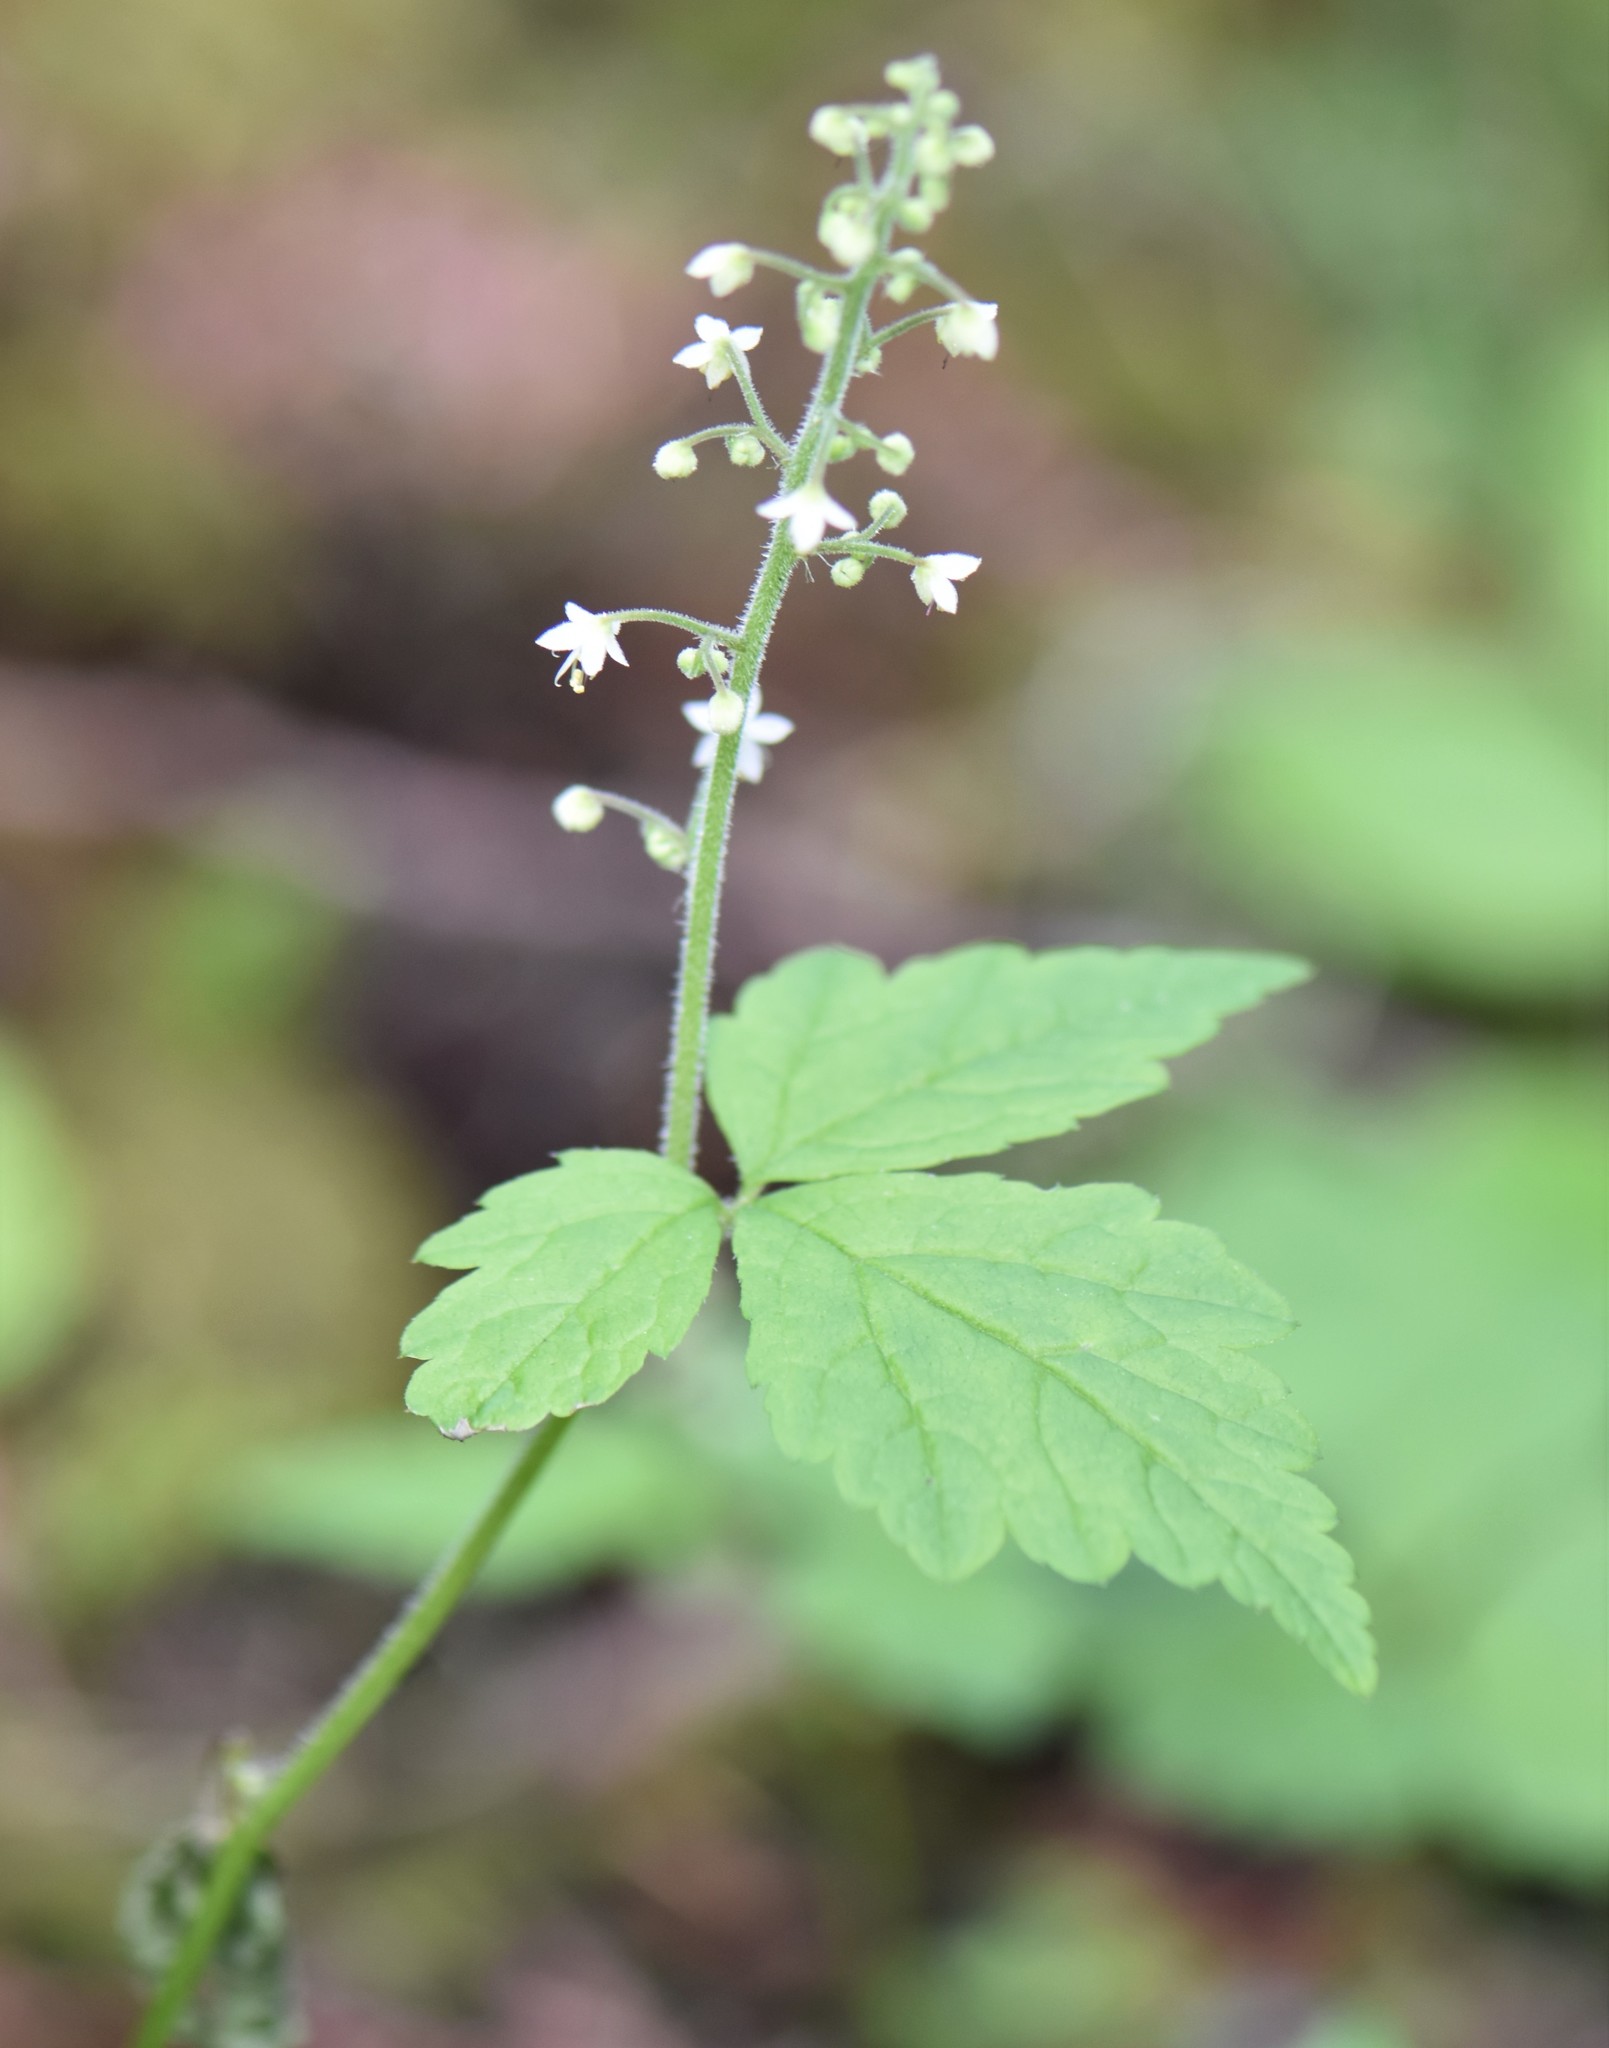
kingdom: Plantae
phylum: Tracheophyta
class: Magnoliopsida
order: Saxifragales
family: Saxifragaceae
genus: Tiarella
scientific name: Tiarella trifoliata
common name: Sugar-scoop
